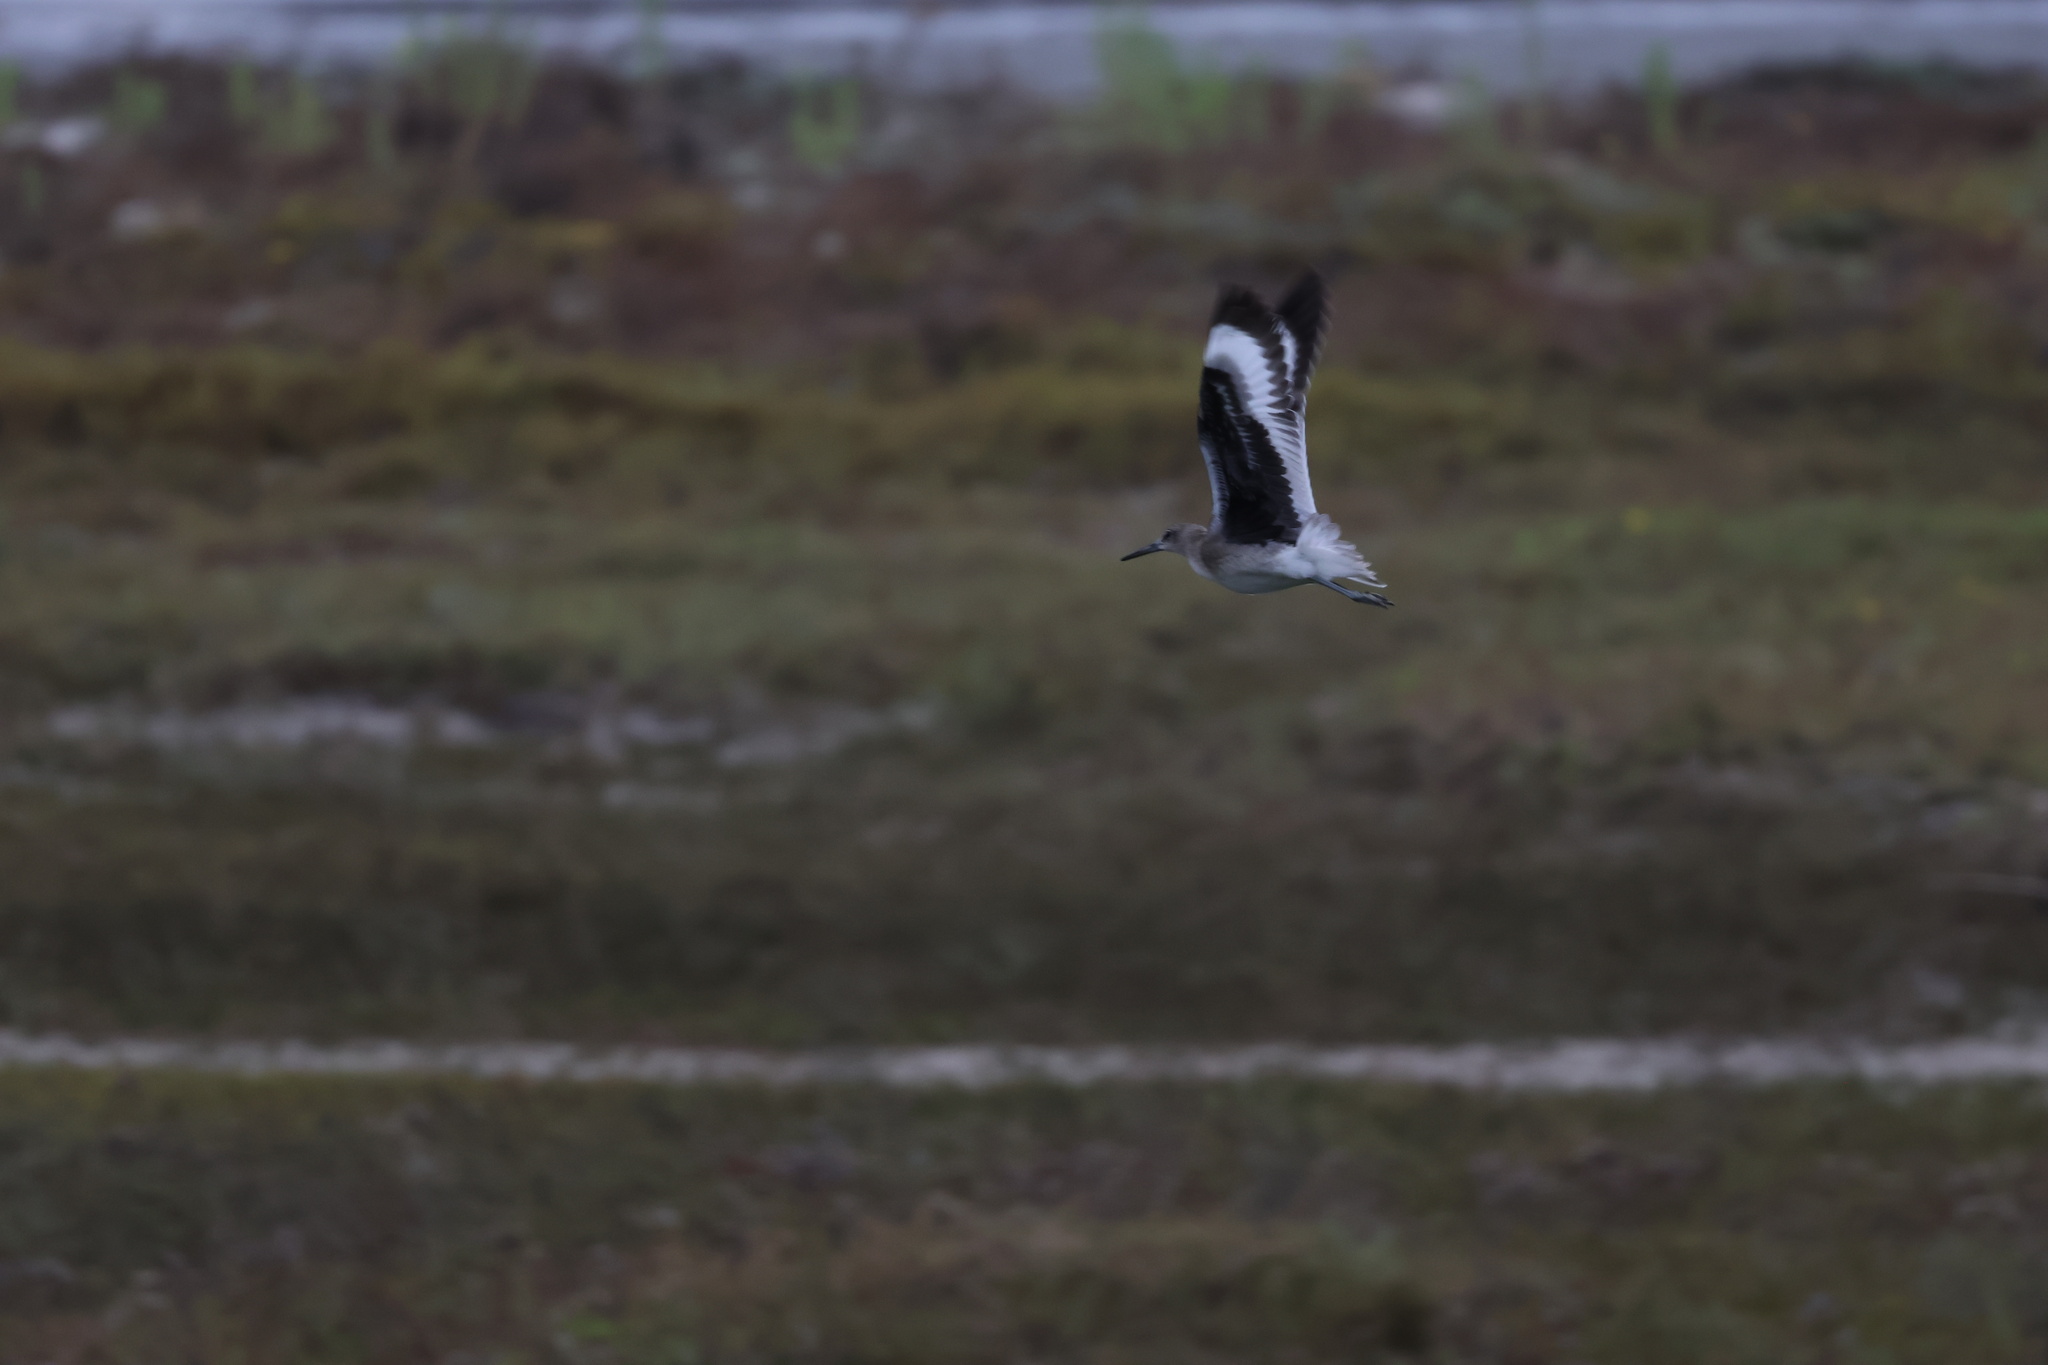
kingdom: Animalia
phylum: Chordata
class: Aves
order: Charadriiformes
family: Scolopacidae
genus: Tringa
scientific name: Tringa semipalmata
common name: Willet
